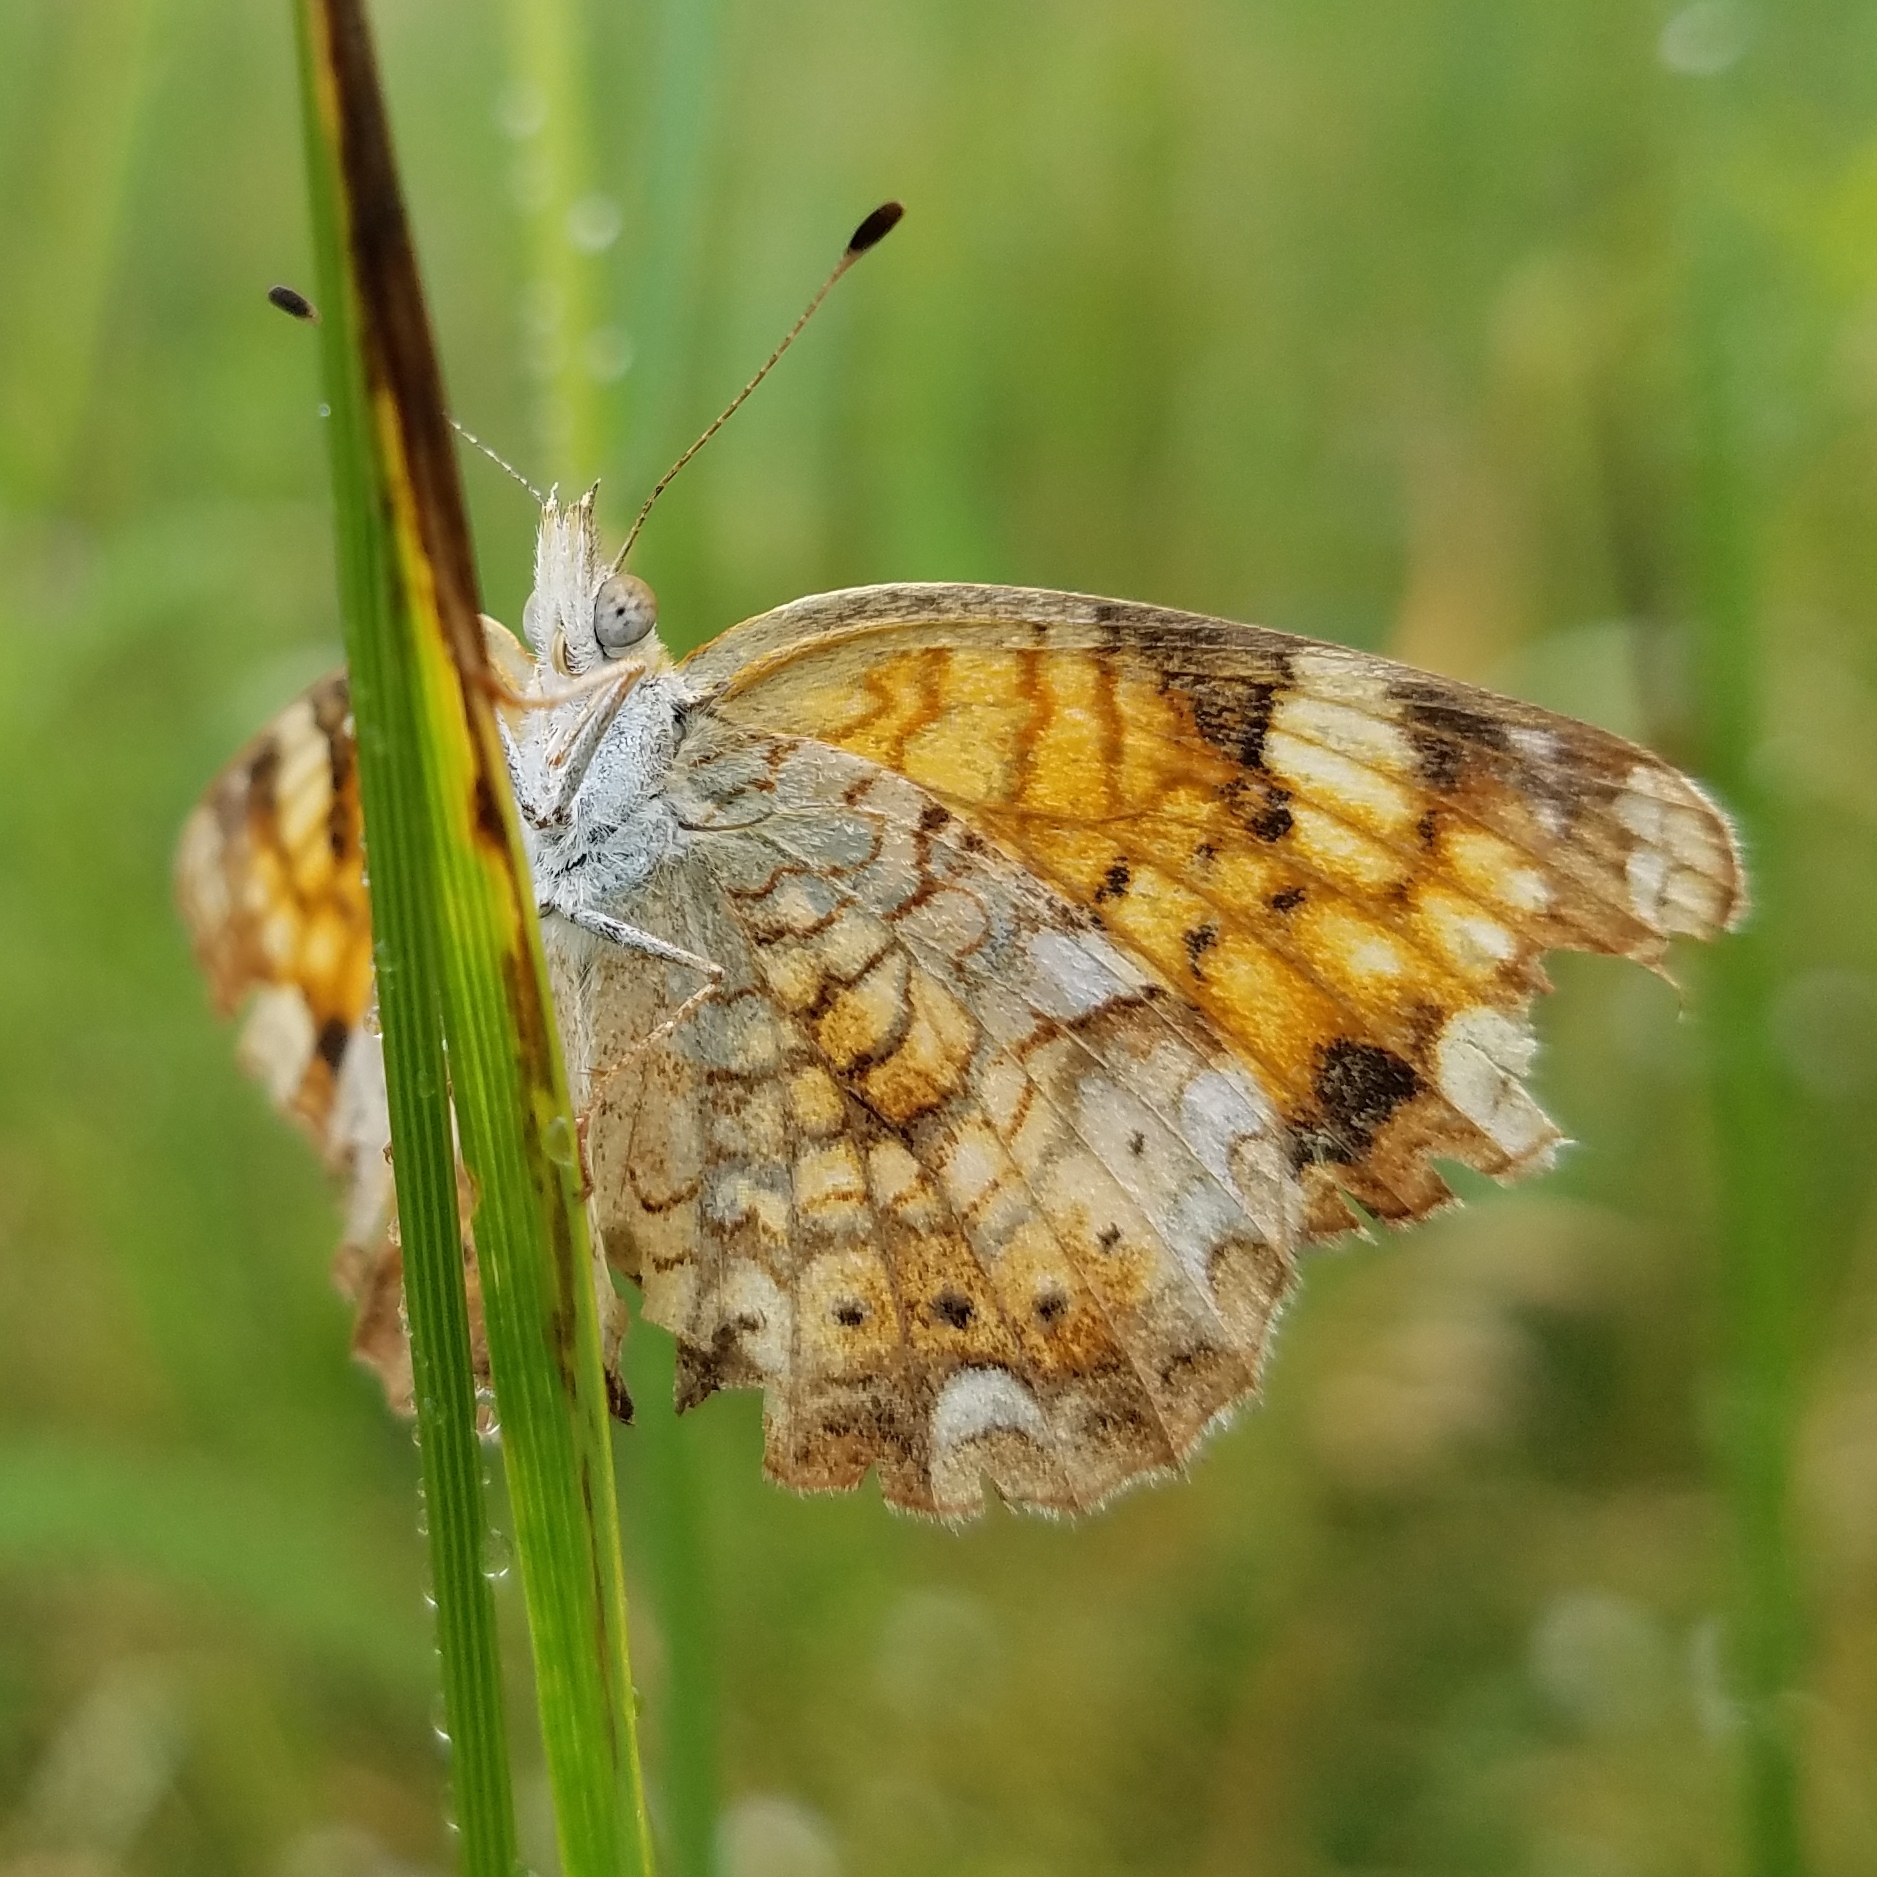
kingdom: Animalia
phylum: Arthropoda
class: Insecta
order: Lepidoptera
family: Nymphalidae
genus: Phyciodes
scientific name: Phyciodes tharos
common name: Pearl crescent
